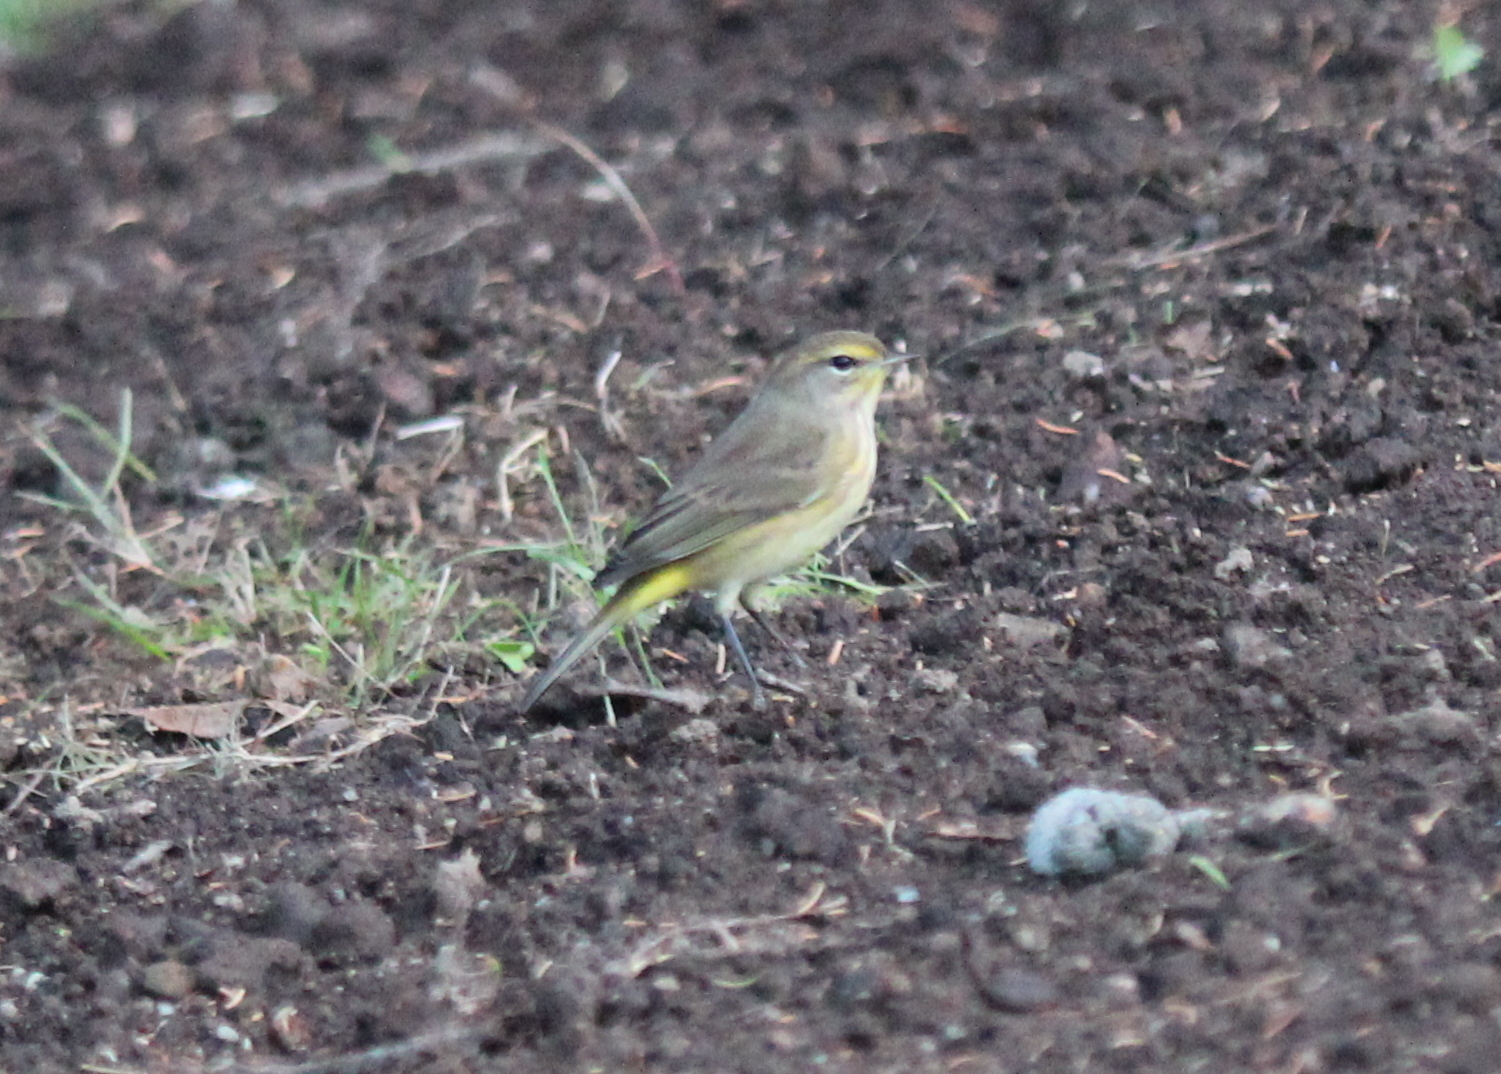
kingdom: Animalia
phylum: Chordata
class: Aves
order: Passeriformes
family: Parulidae
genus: Setophaga
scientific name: Setophaga palmarum
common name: Palm warbler
